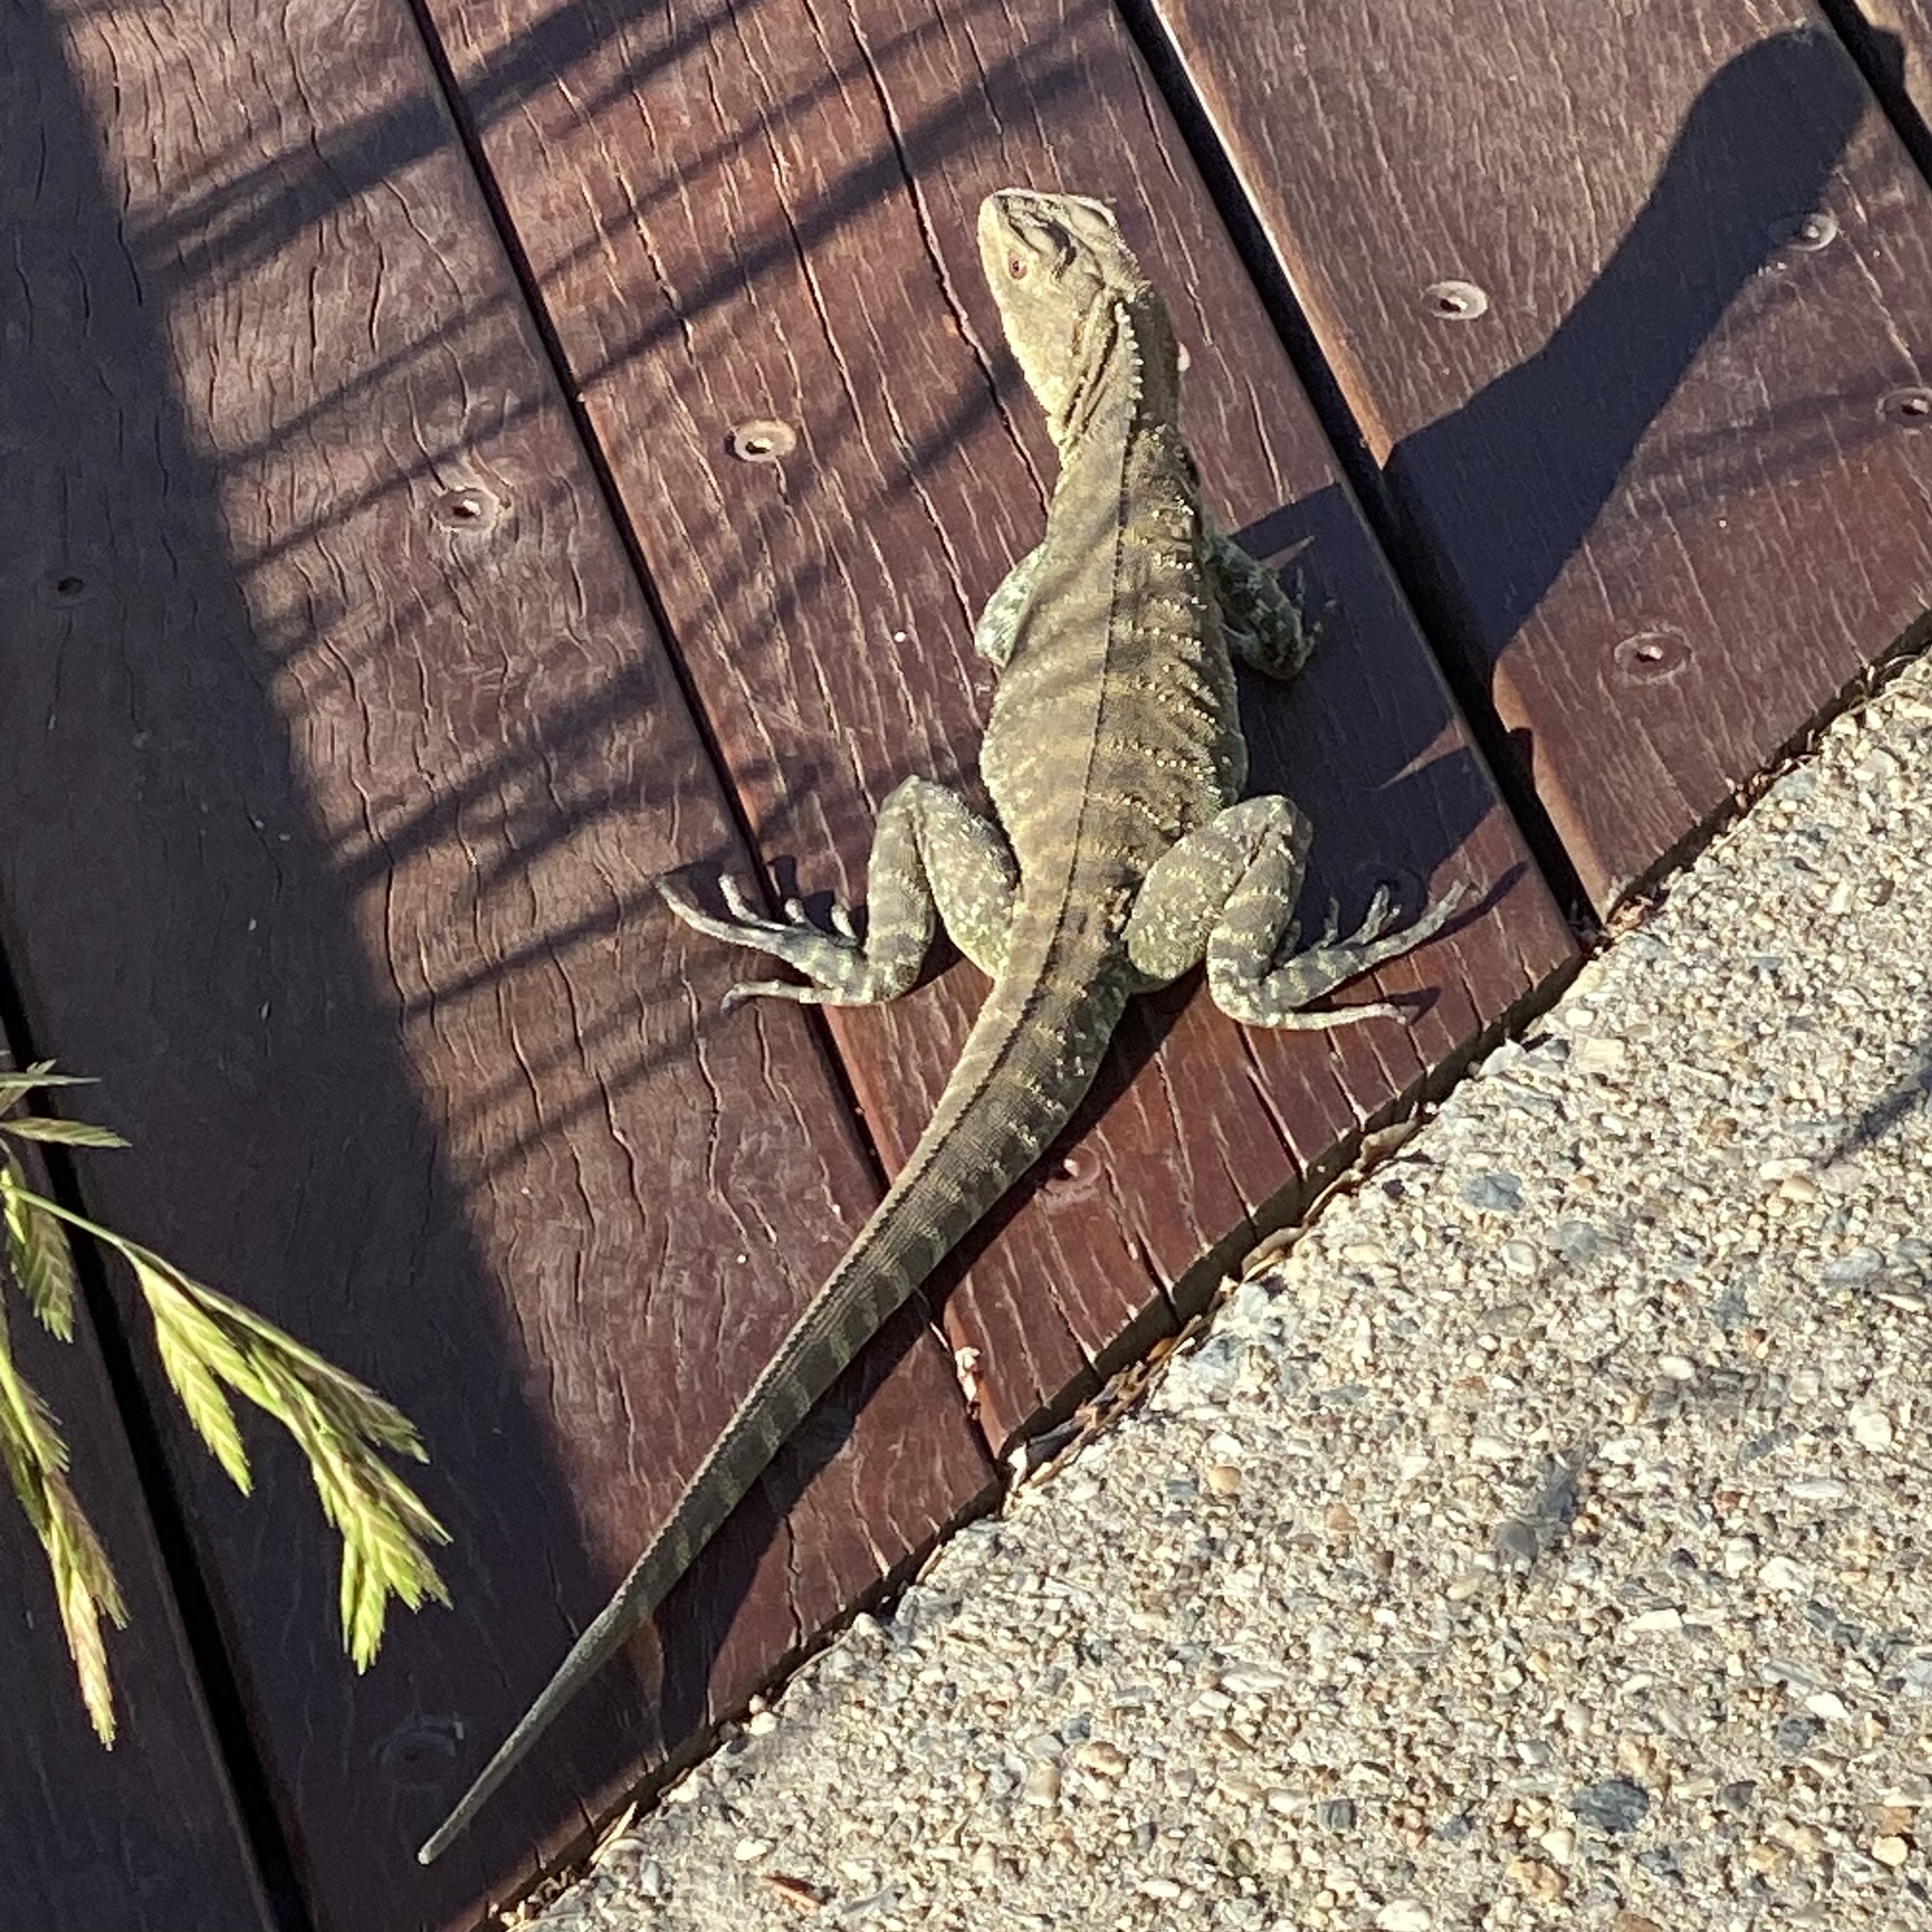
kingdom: Animalia
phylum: Chordata
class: Squamata
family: Agamidae
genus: Intellagama
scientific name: Intellagama lesueurii
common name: Eastern water dragon
